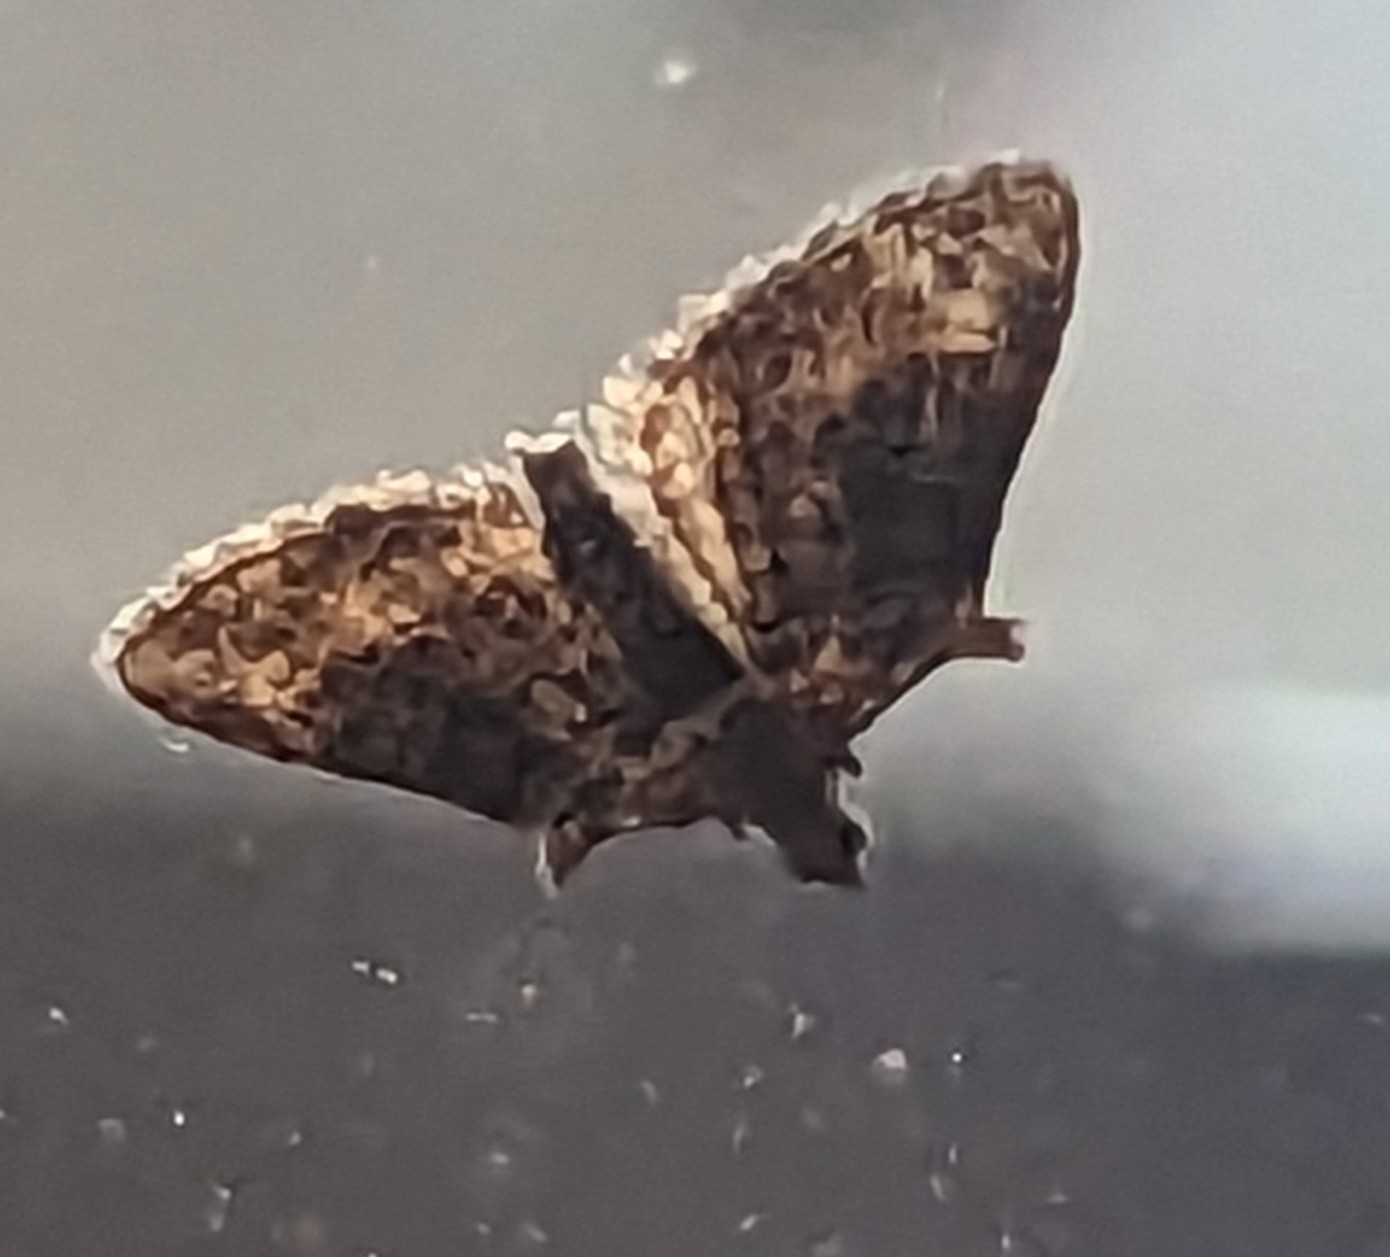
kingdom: Animalia
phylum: Arthropoda
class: Insecta
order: Lepidoptera
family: Geometridae
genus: Phrissogonus
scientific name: Phrissogonus laticostata
